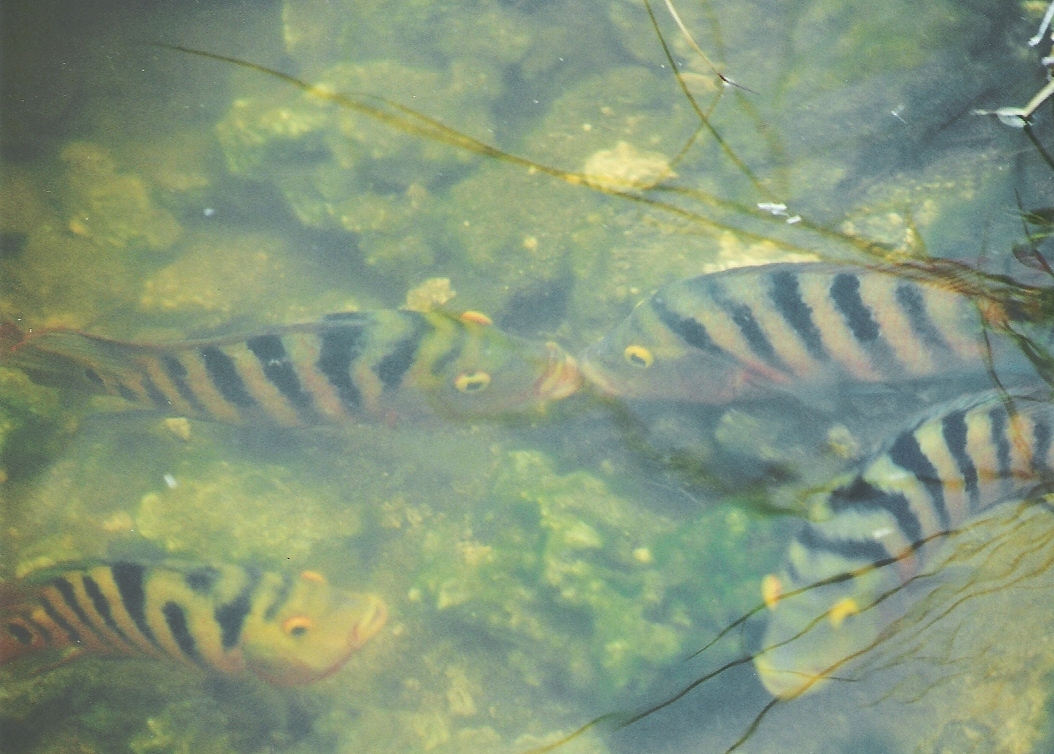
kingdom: Animalia
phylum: Chordata
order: Perciformes
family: Cichlidae
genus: Mayaheros
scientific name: Mayaheros urophthalmus
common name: Mayan cichlid
